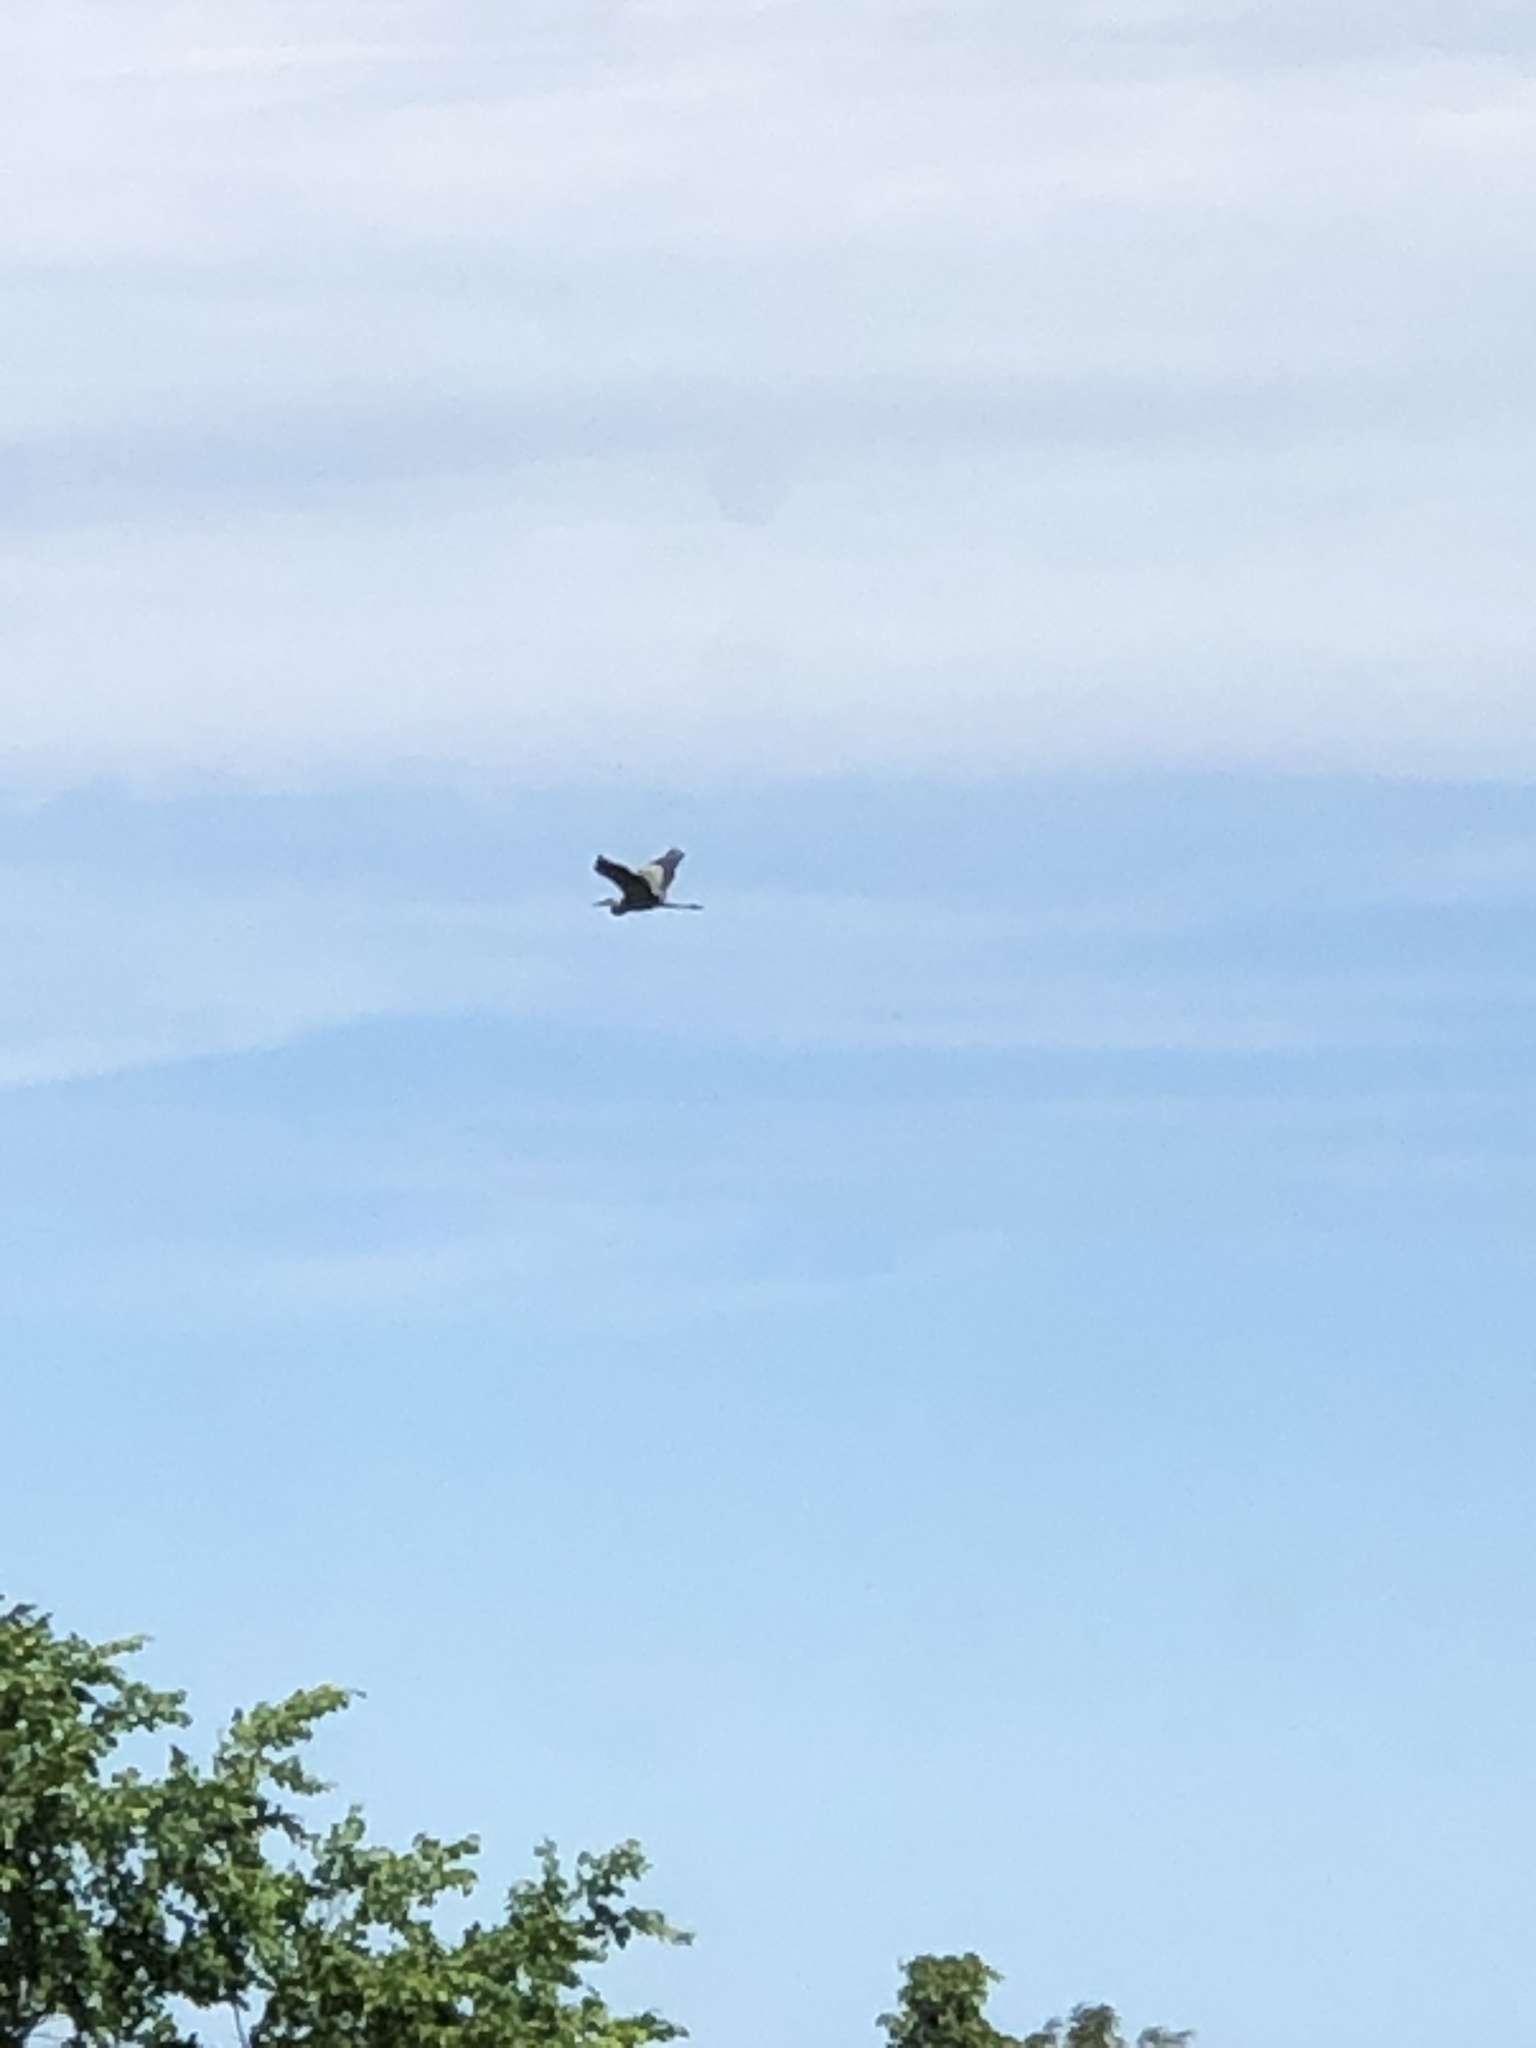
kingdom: Animalia
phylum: Chordata
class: Aves
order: Pelecaniformes
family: Ardeidae
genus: Ardea
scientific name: Ardea herodias
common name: Great blue heron
